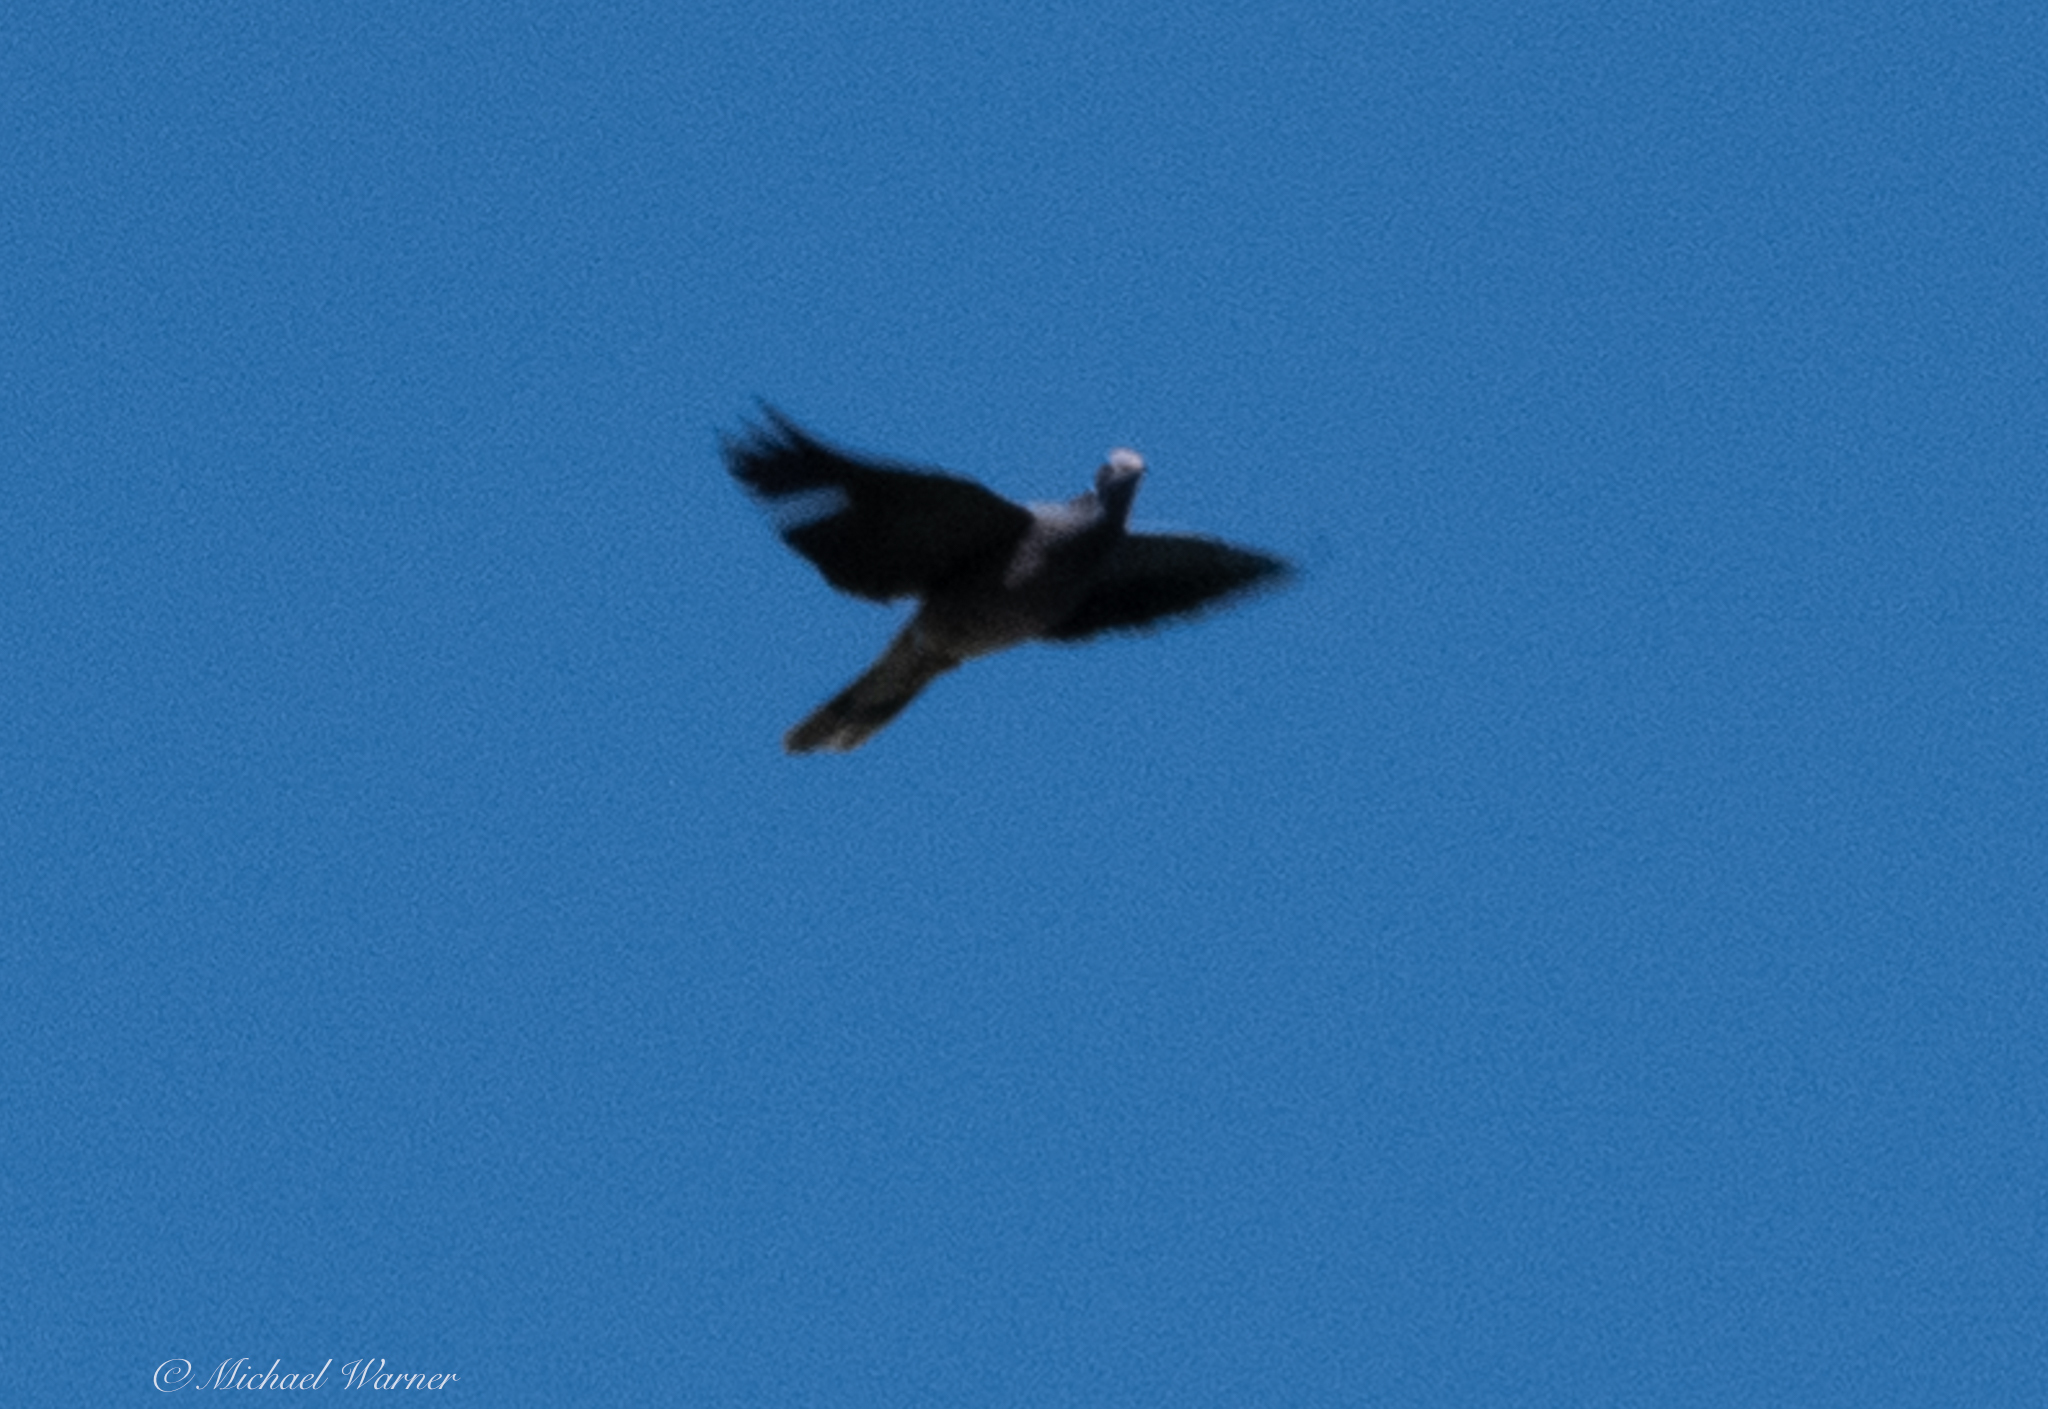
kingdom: Animalia
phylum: Chordata
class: Aves
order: Columbiformes
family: Columbidae
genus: Patagioenas
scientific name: Patagioenas fasciata
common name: Band-tailed pigeon
